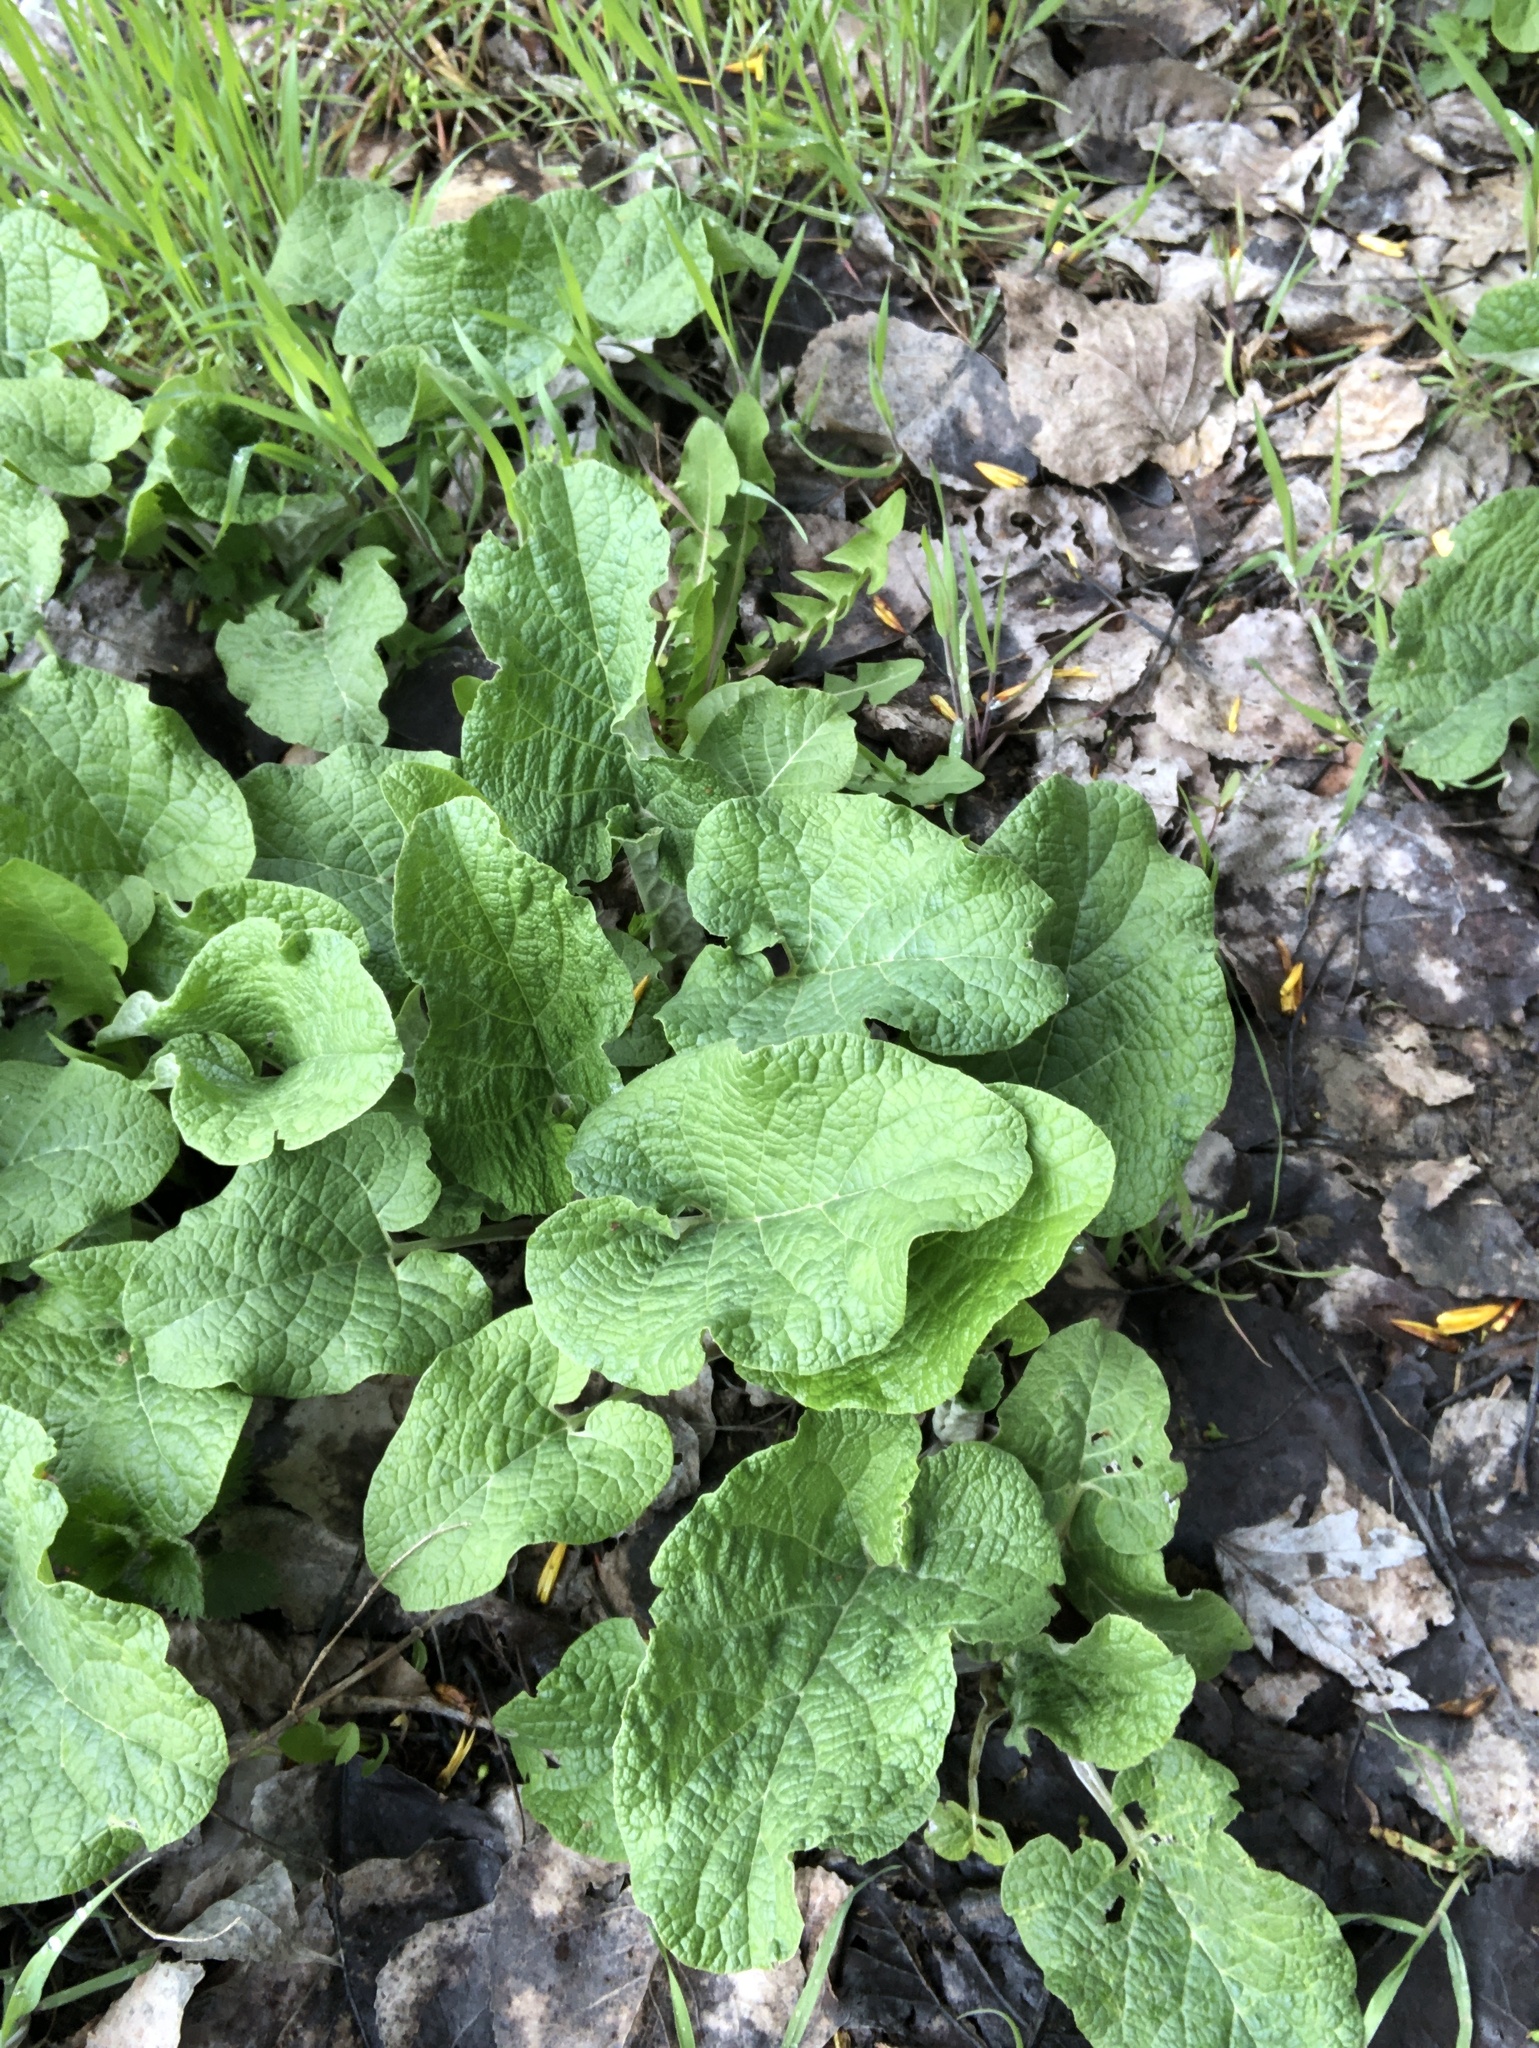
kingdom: Plantae
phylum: Tracheophyta
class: Magnoliopsida
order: Asterales
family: Asteraceae
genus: Arctium
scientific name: Arctium lappa
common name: Greater burdock
